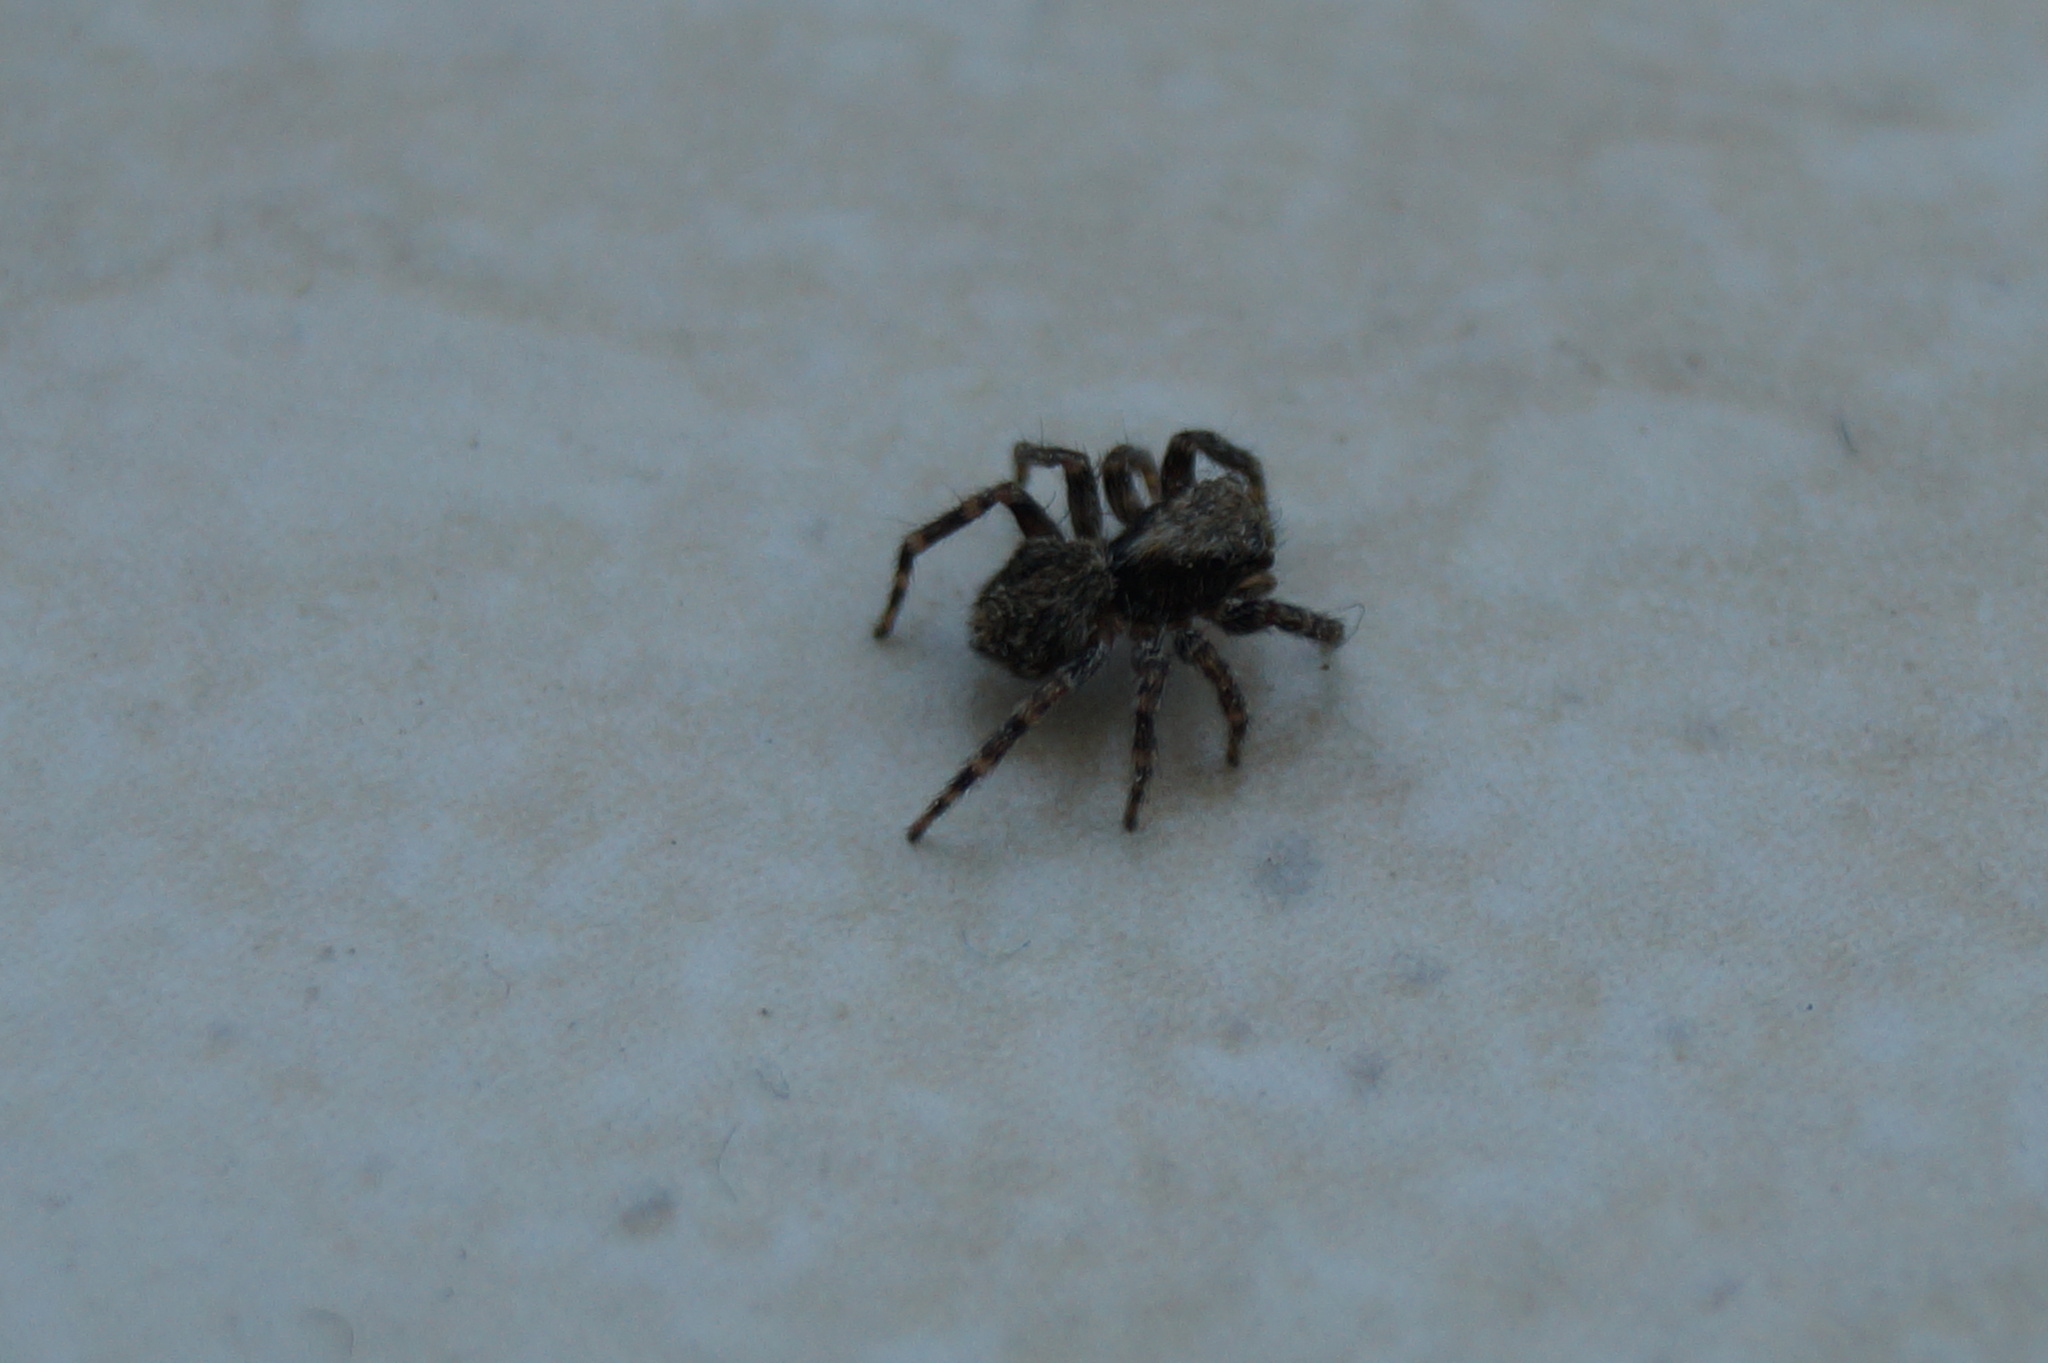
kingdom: Animalia
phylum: Arthropoda
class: Arachnida
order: Araneae
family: Salticidae
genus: Pseudeuophrys
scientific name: Pseudeuophrys lanigera
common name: Jumping spider
